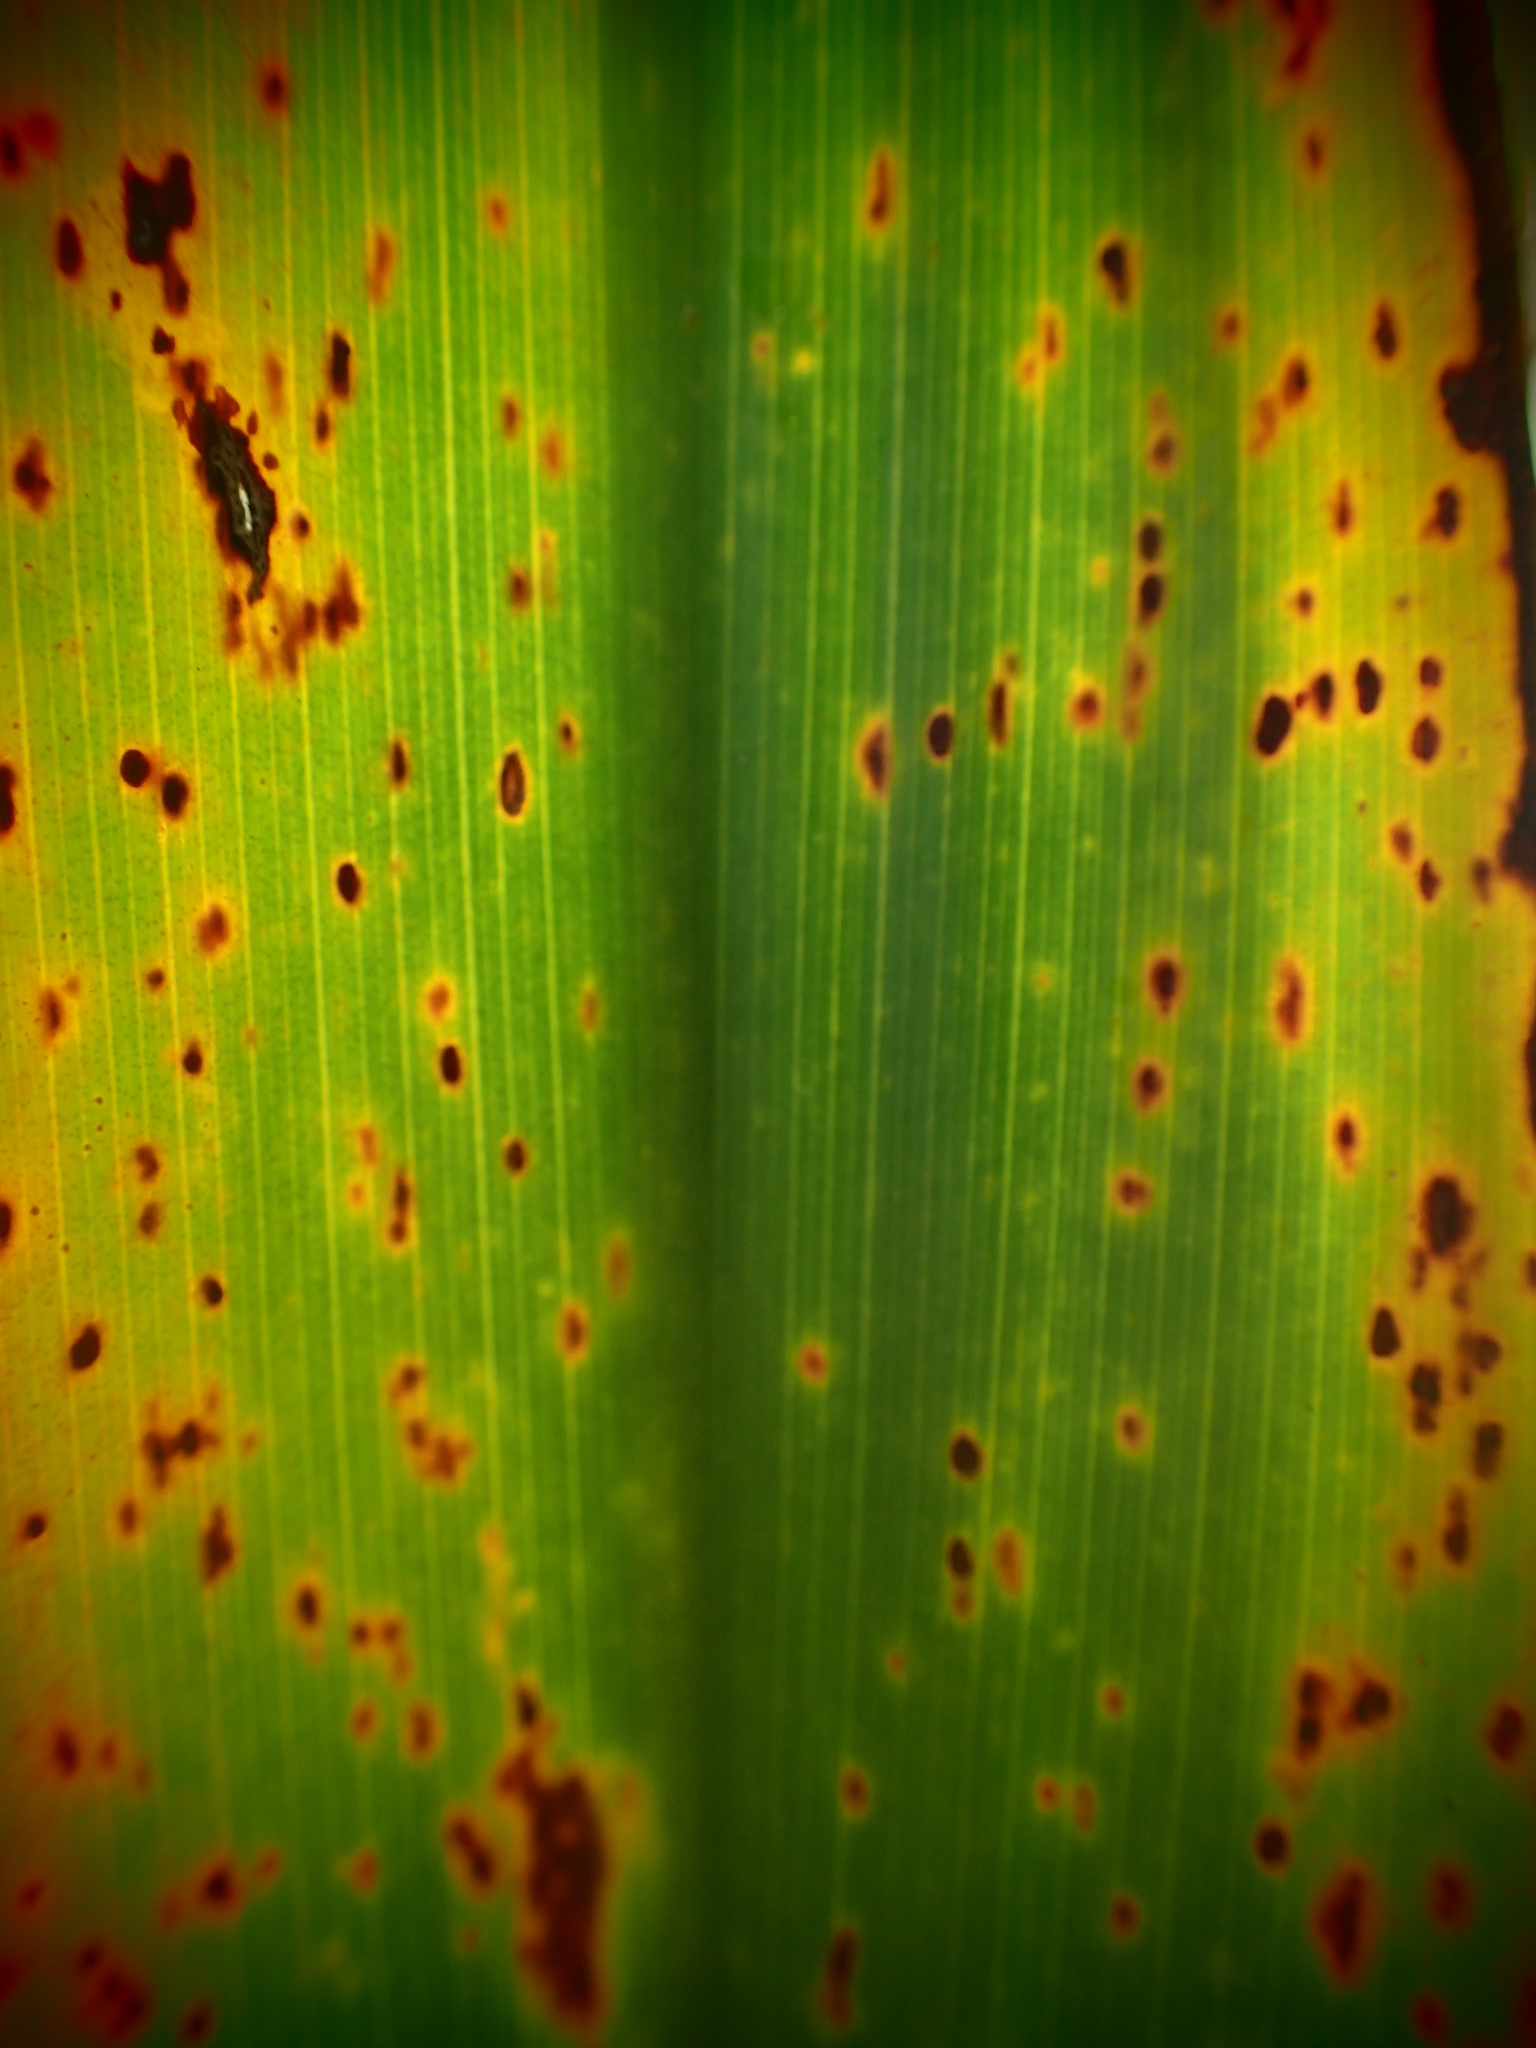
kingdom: Plantae
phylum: Tracheophyta
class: Liliopsida
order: Asparagales
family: Doryanthaceae
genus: Doryanthes
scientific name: Doryanthes excelsa
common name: Giant-lily
